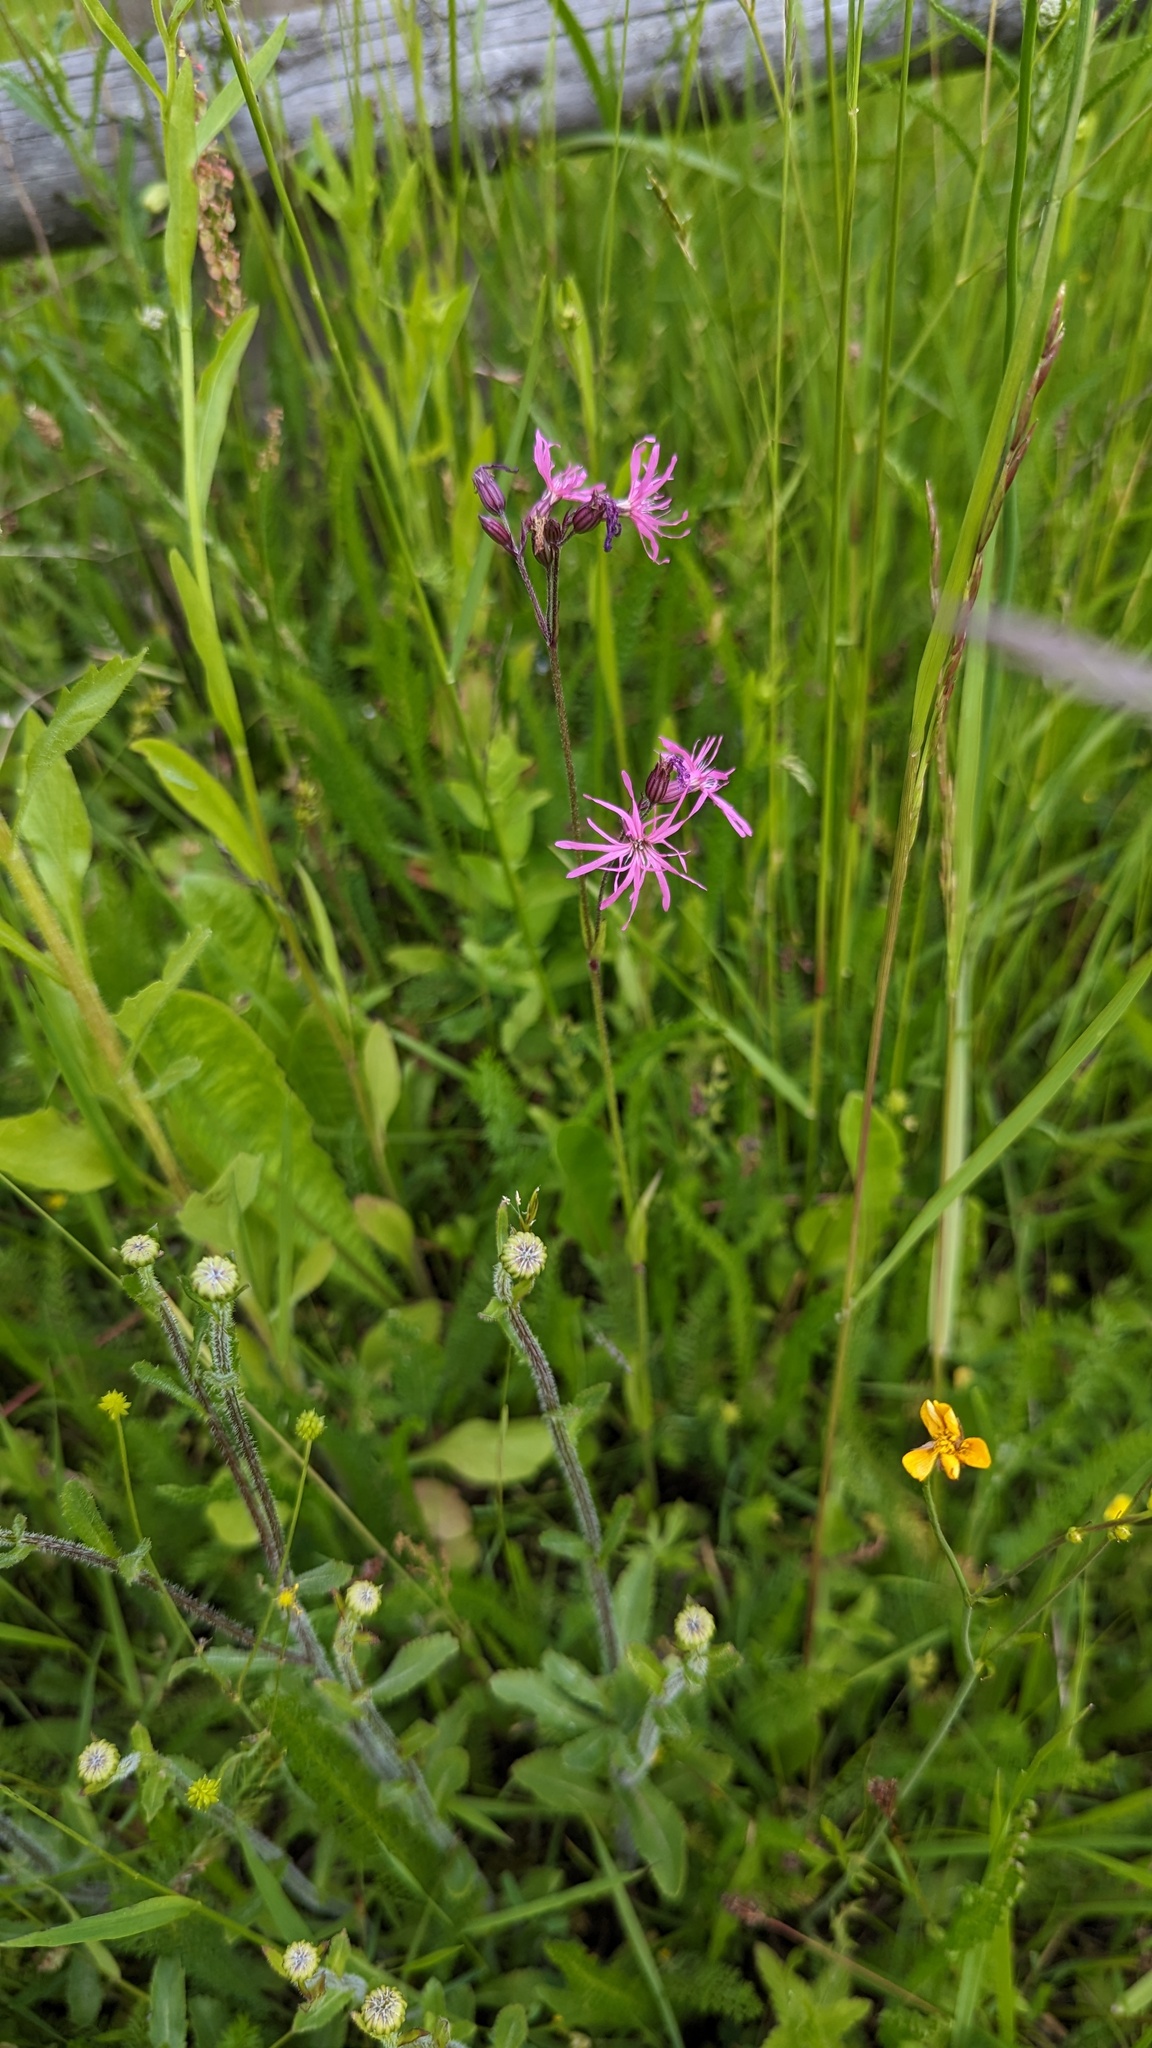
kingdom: Plantae
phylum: Tracheophyta
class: Magnoliopsida
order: Caryophyllales
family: Caryophyllaceae
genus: Silene
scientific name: Silene flos-cuculi
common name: Ragged-robin
